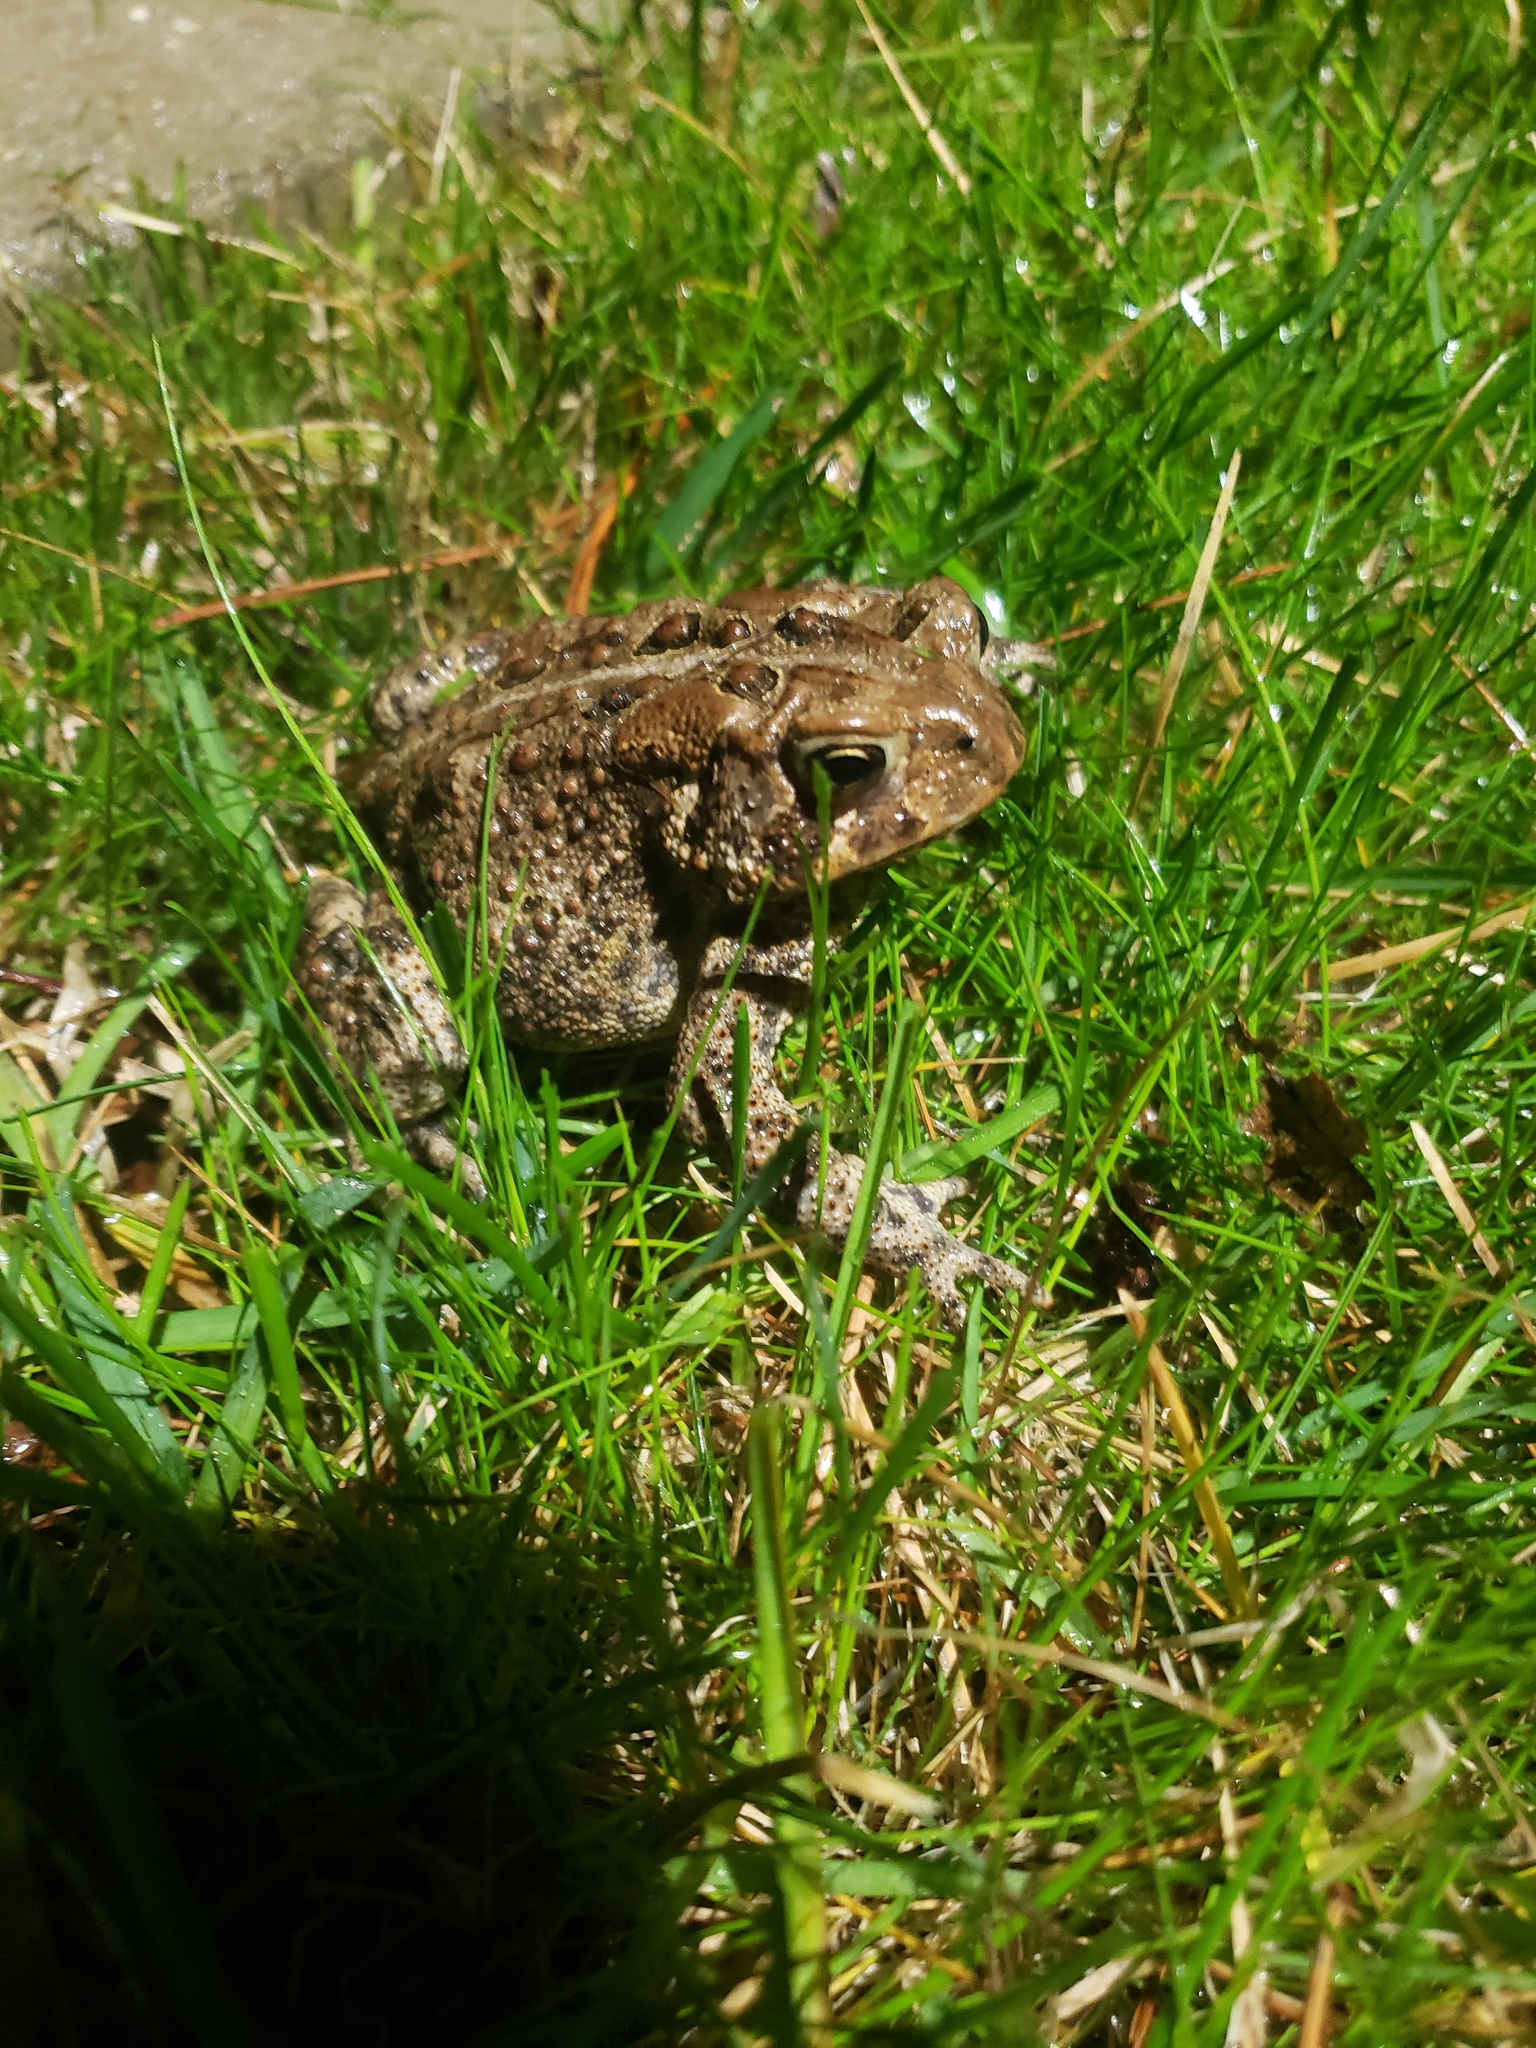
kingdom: Animalia
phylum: Chordata
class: Amphibia
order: Anura
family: Bufonidae
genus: Anaxyrus
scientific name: Anaxyrus americanus
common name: American toad
